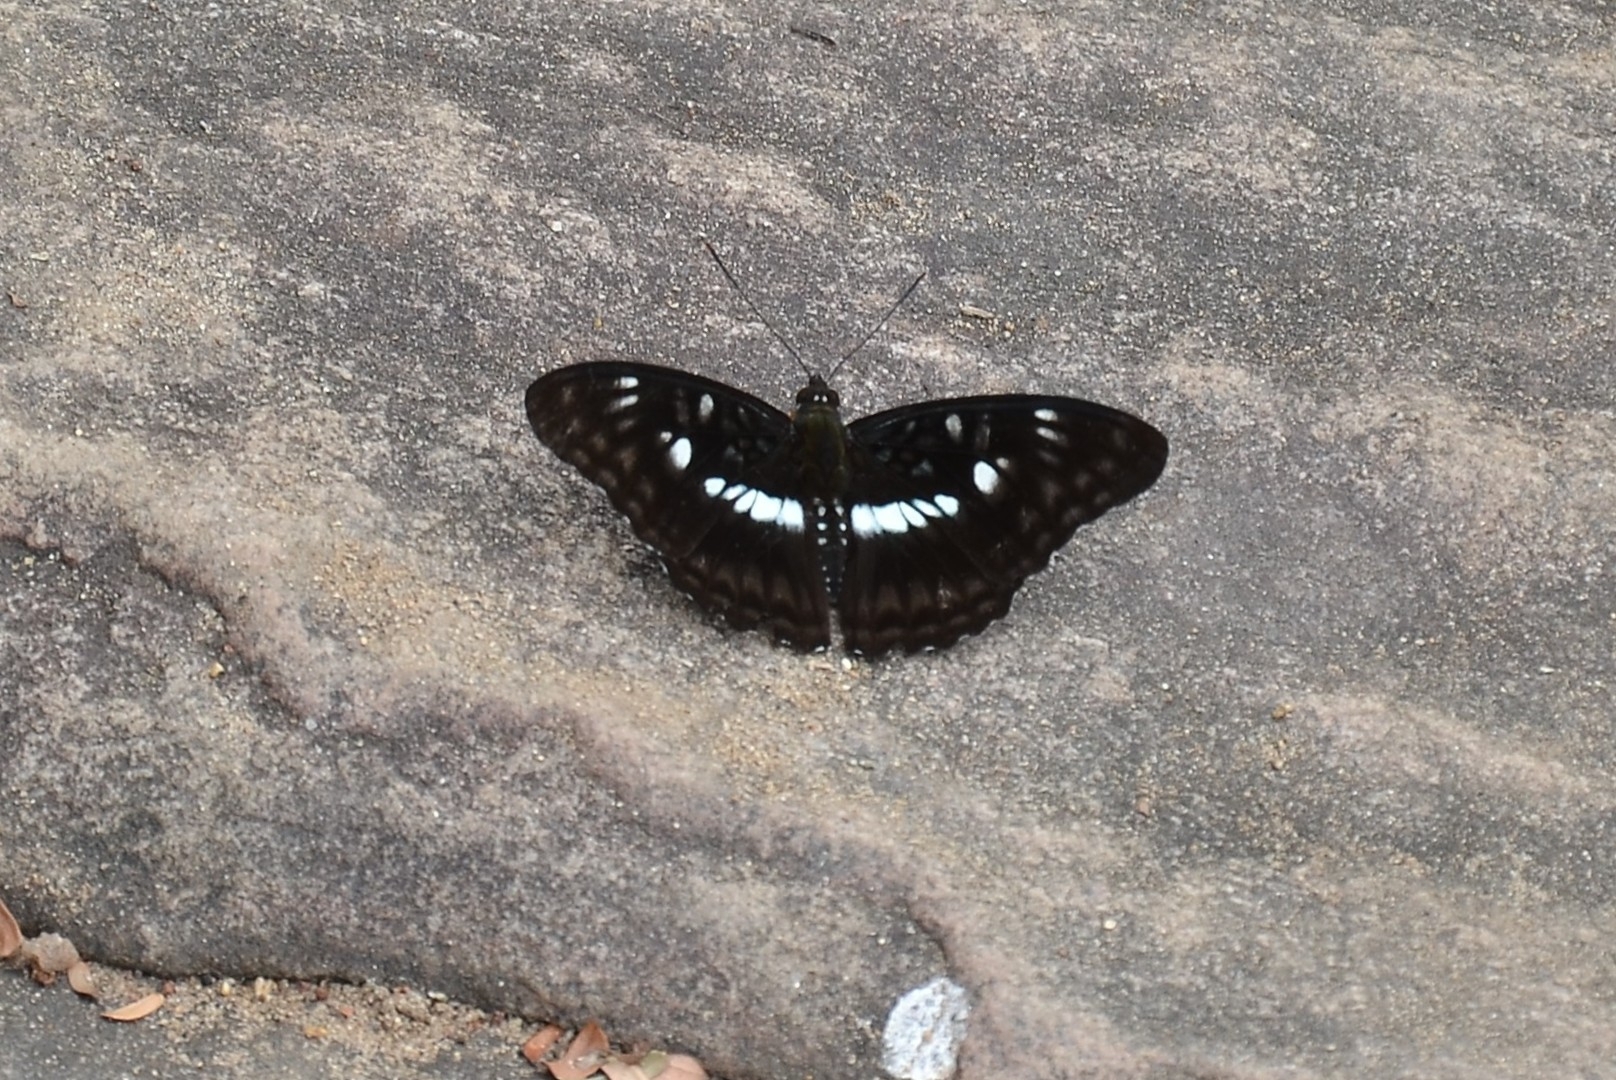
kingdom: Animalia
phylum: Arthropoda
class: Insecta
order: Lepidoptera
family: Nymphalidae
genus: Parathyma
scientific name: Parathyma ranga
